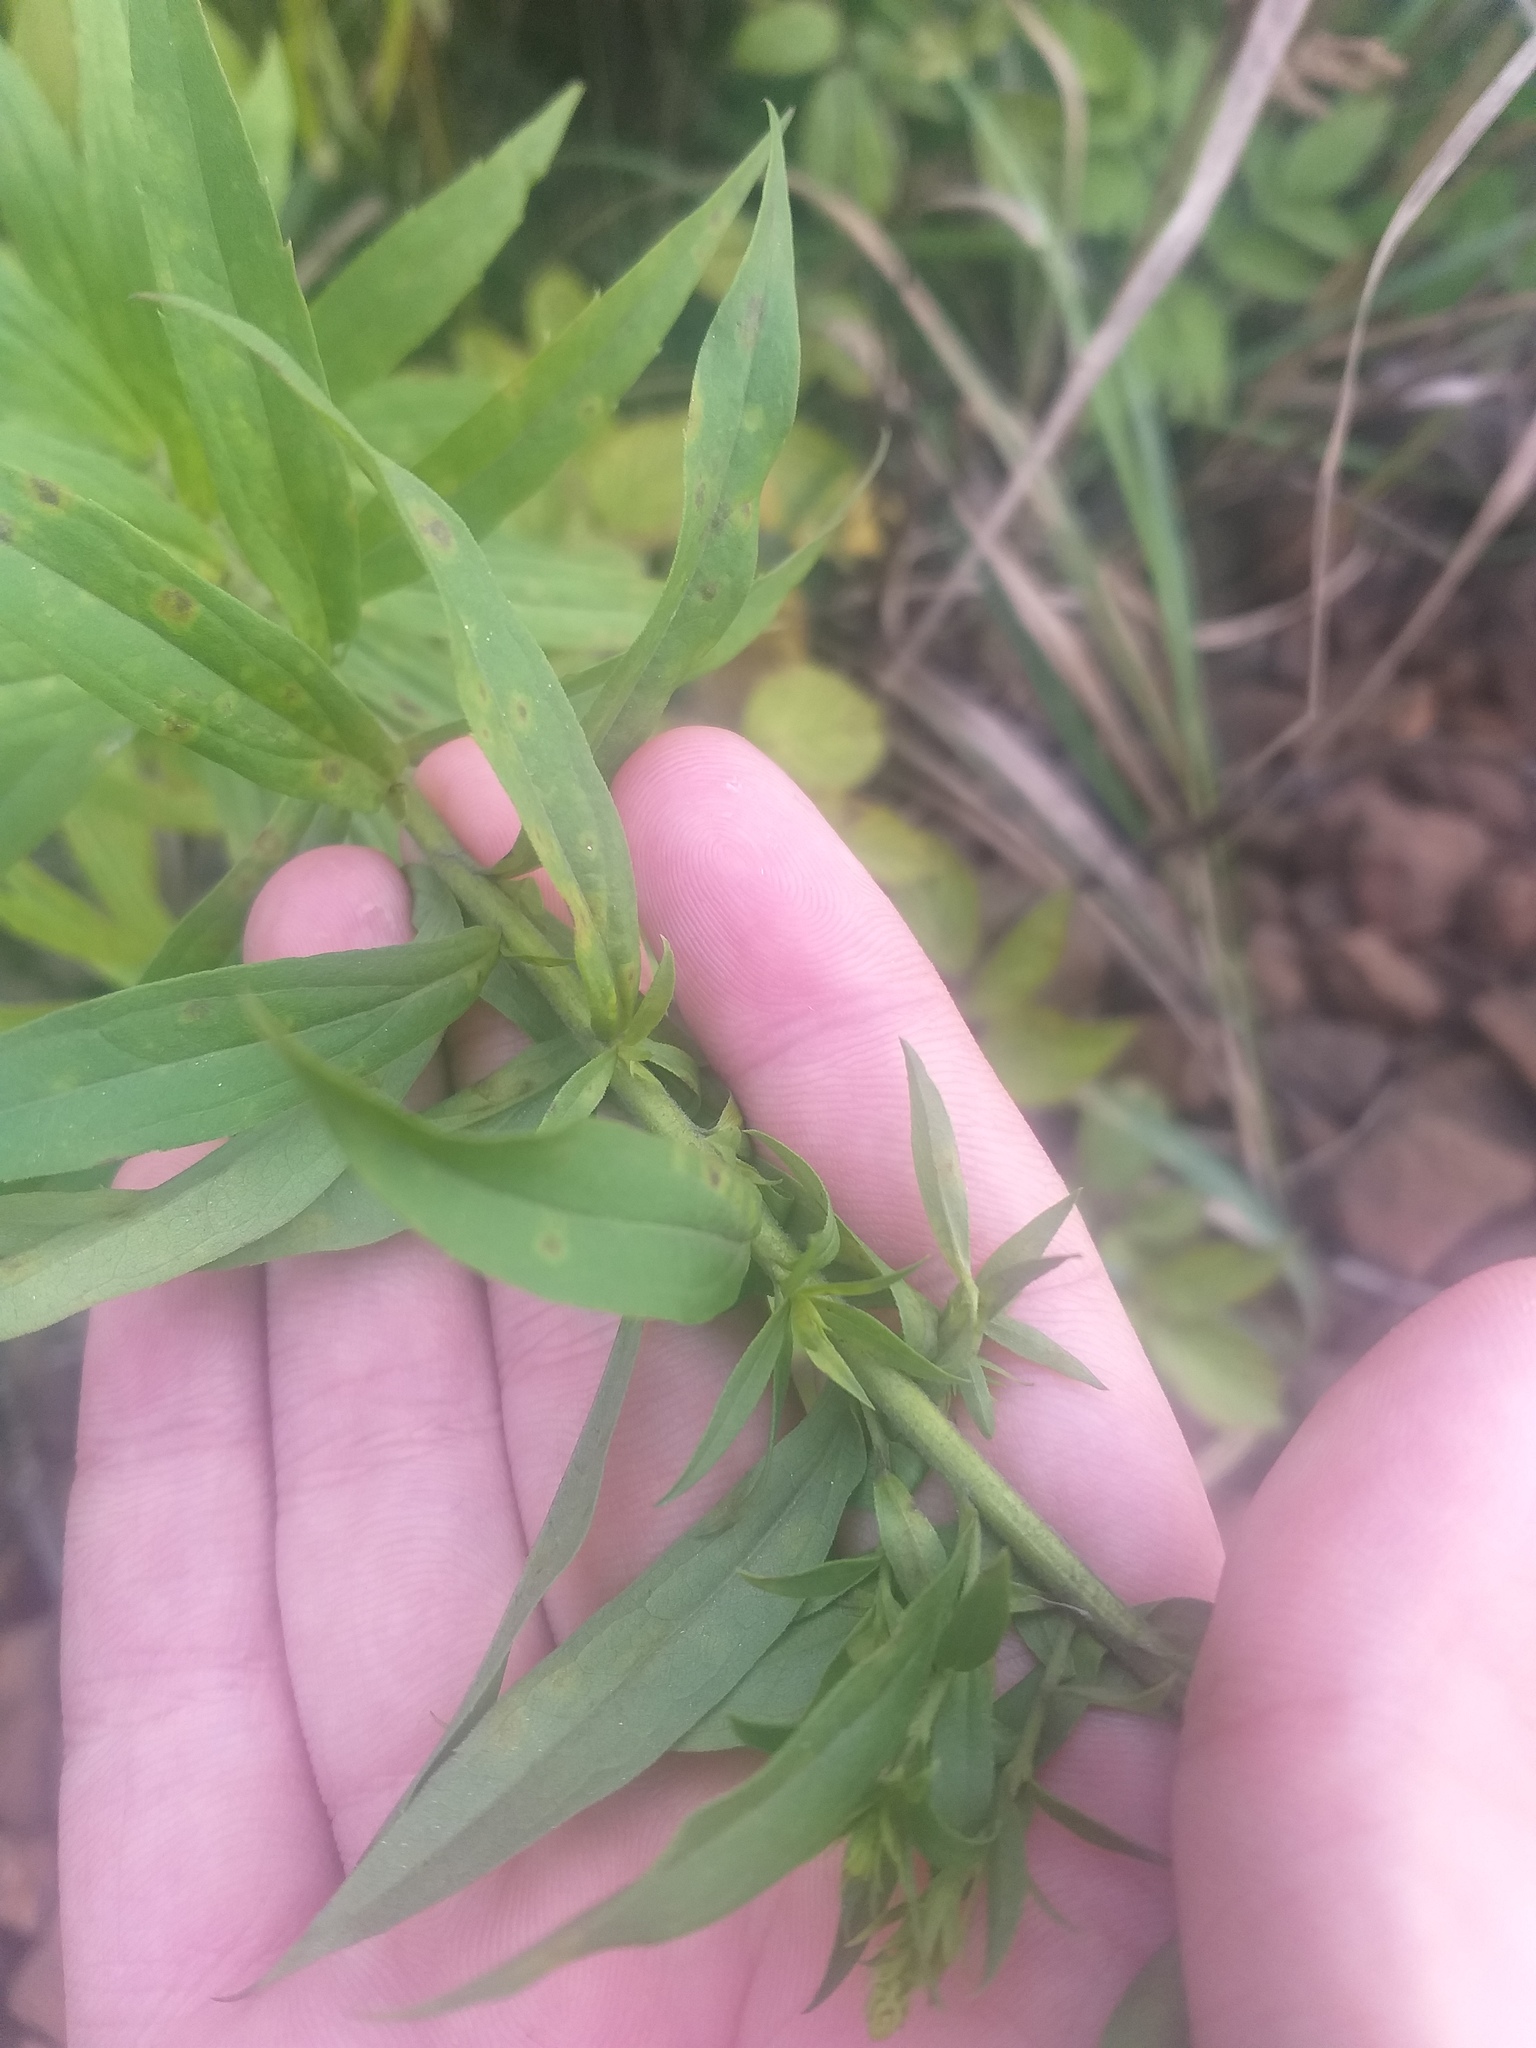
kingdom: Plantae
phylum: Tracheophyta
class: Magnoliopsida
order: Asterales
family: Asteraceae
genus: Solidago
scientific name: Solidago canadensis
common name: Canada goldenrod
